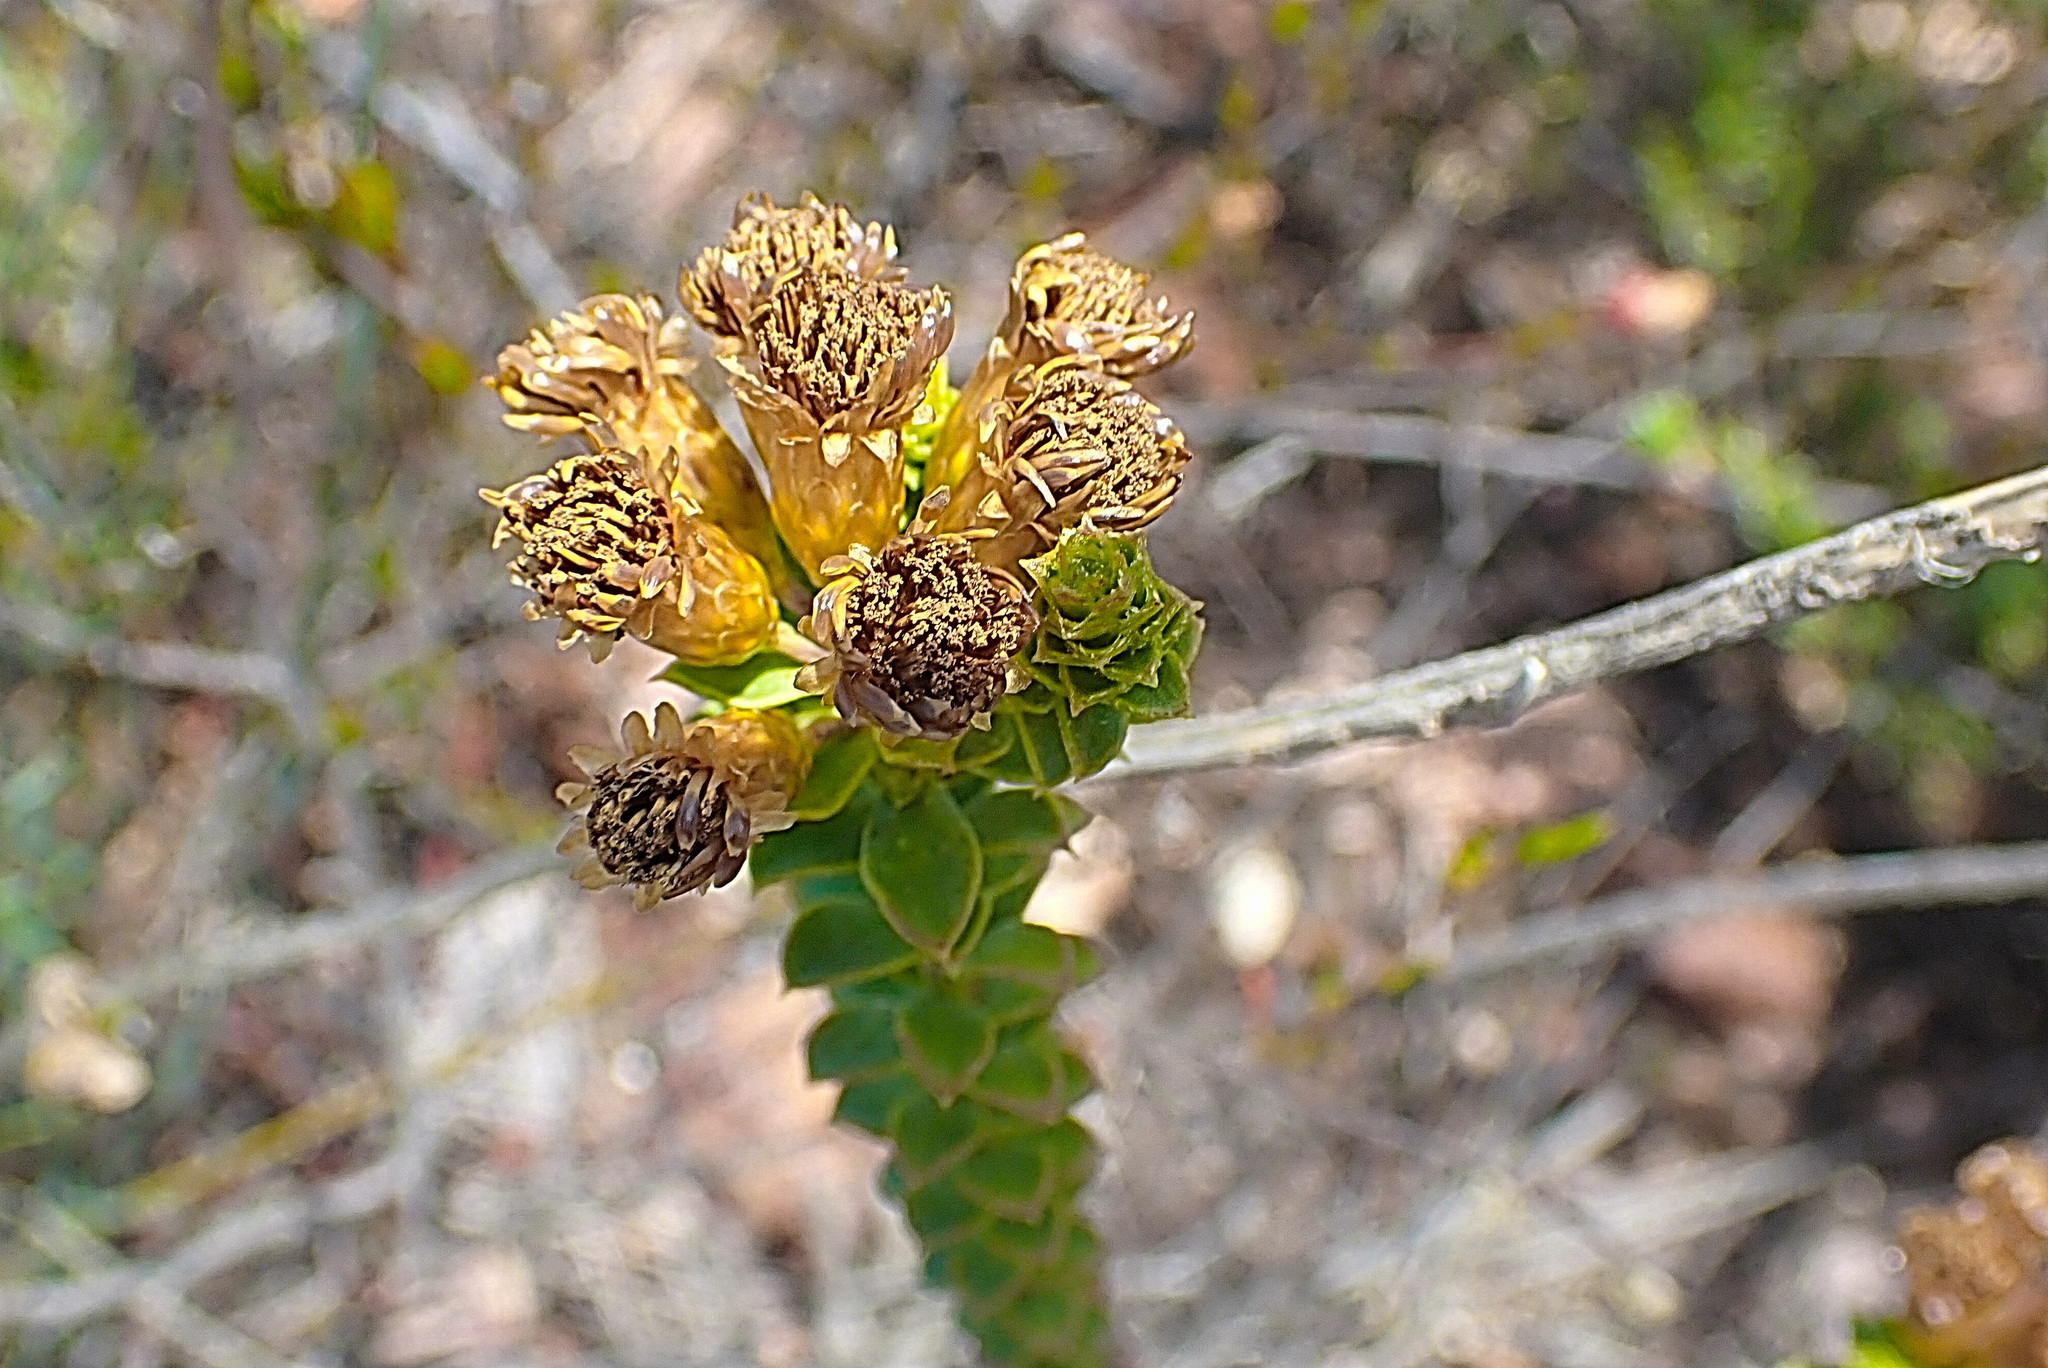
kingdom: Plantae
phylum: Tracheophyta
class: Magnoliopsida
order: Asterales
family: Asteraceae
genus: Oedera
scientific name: Oedera squarrosa
